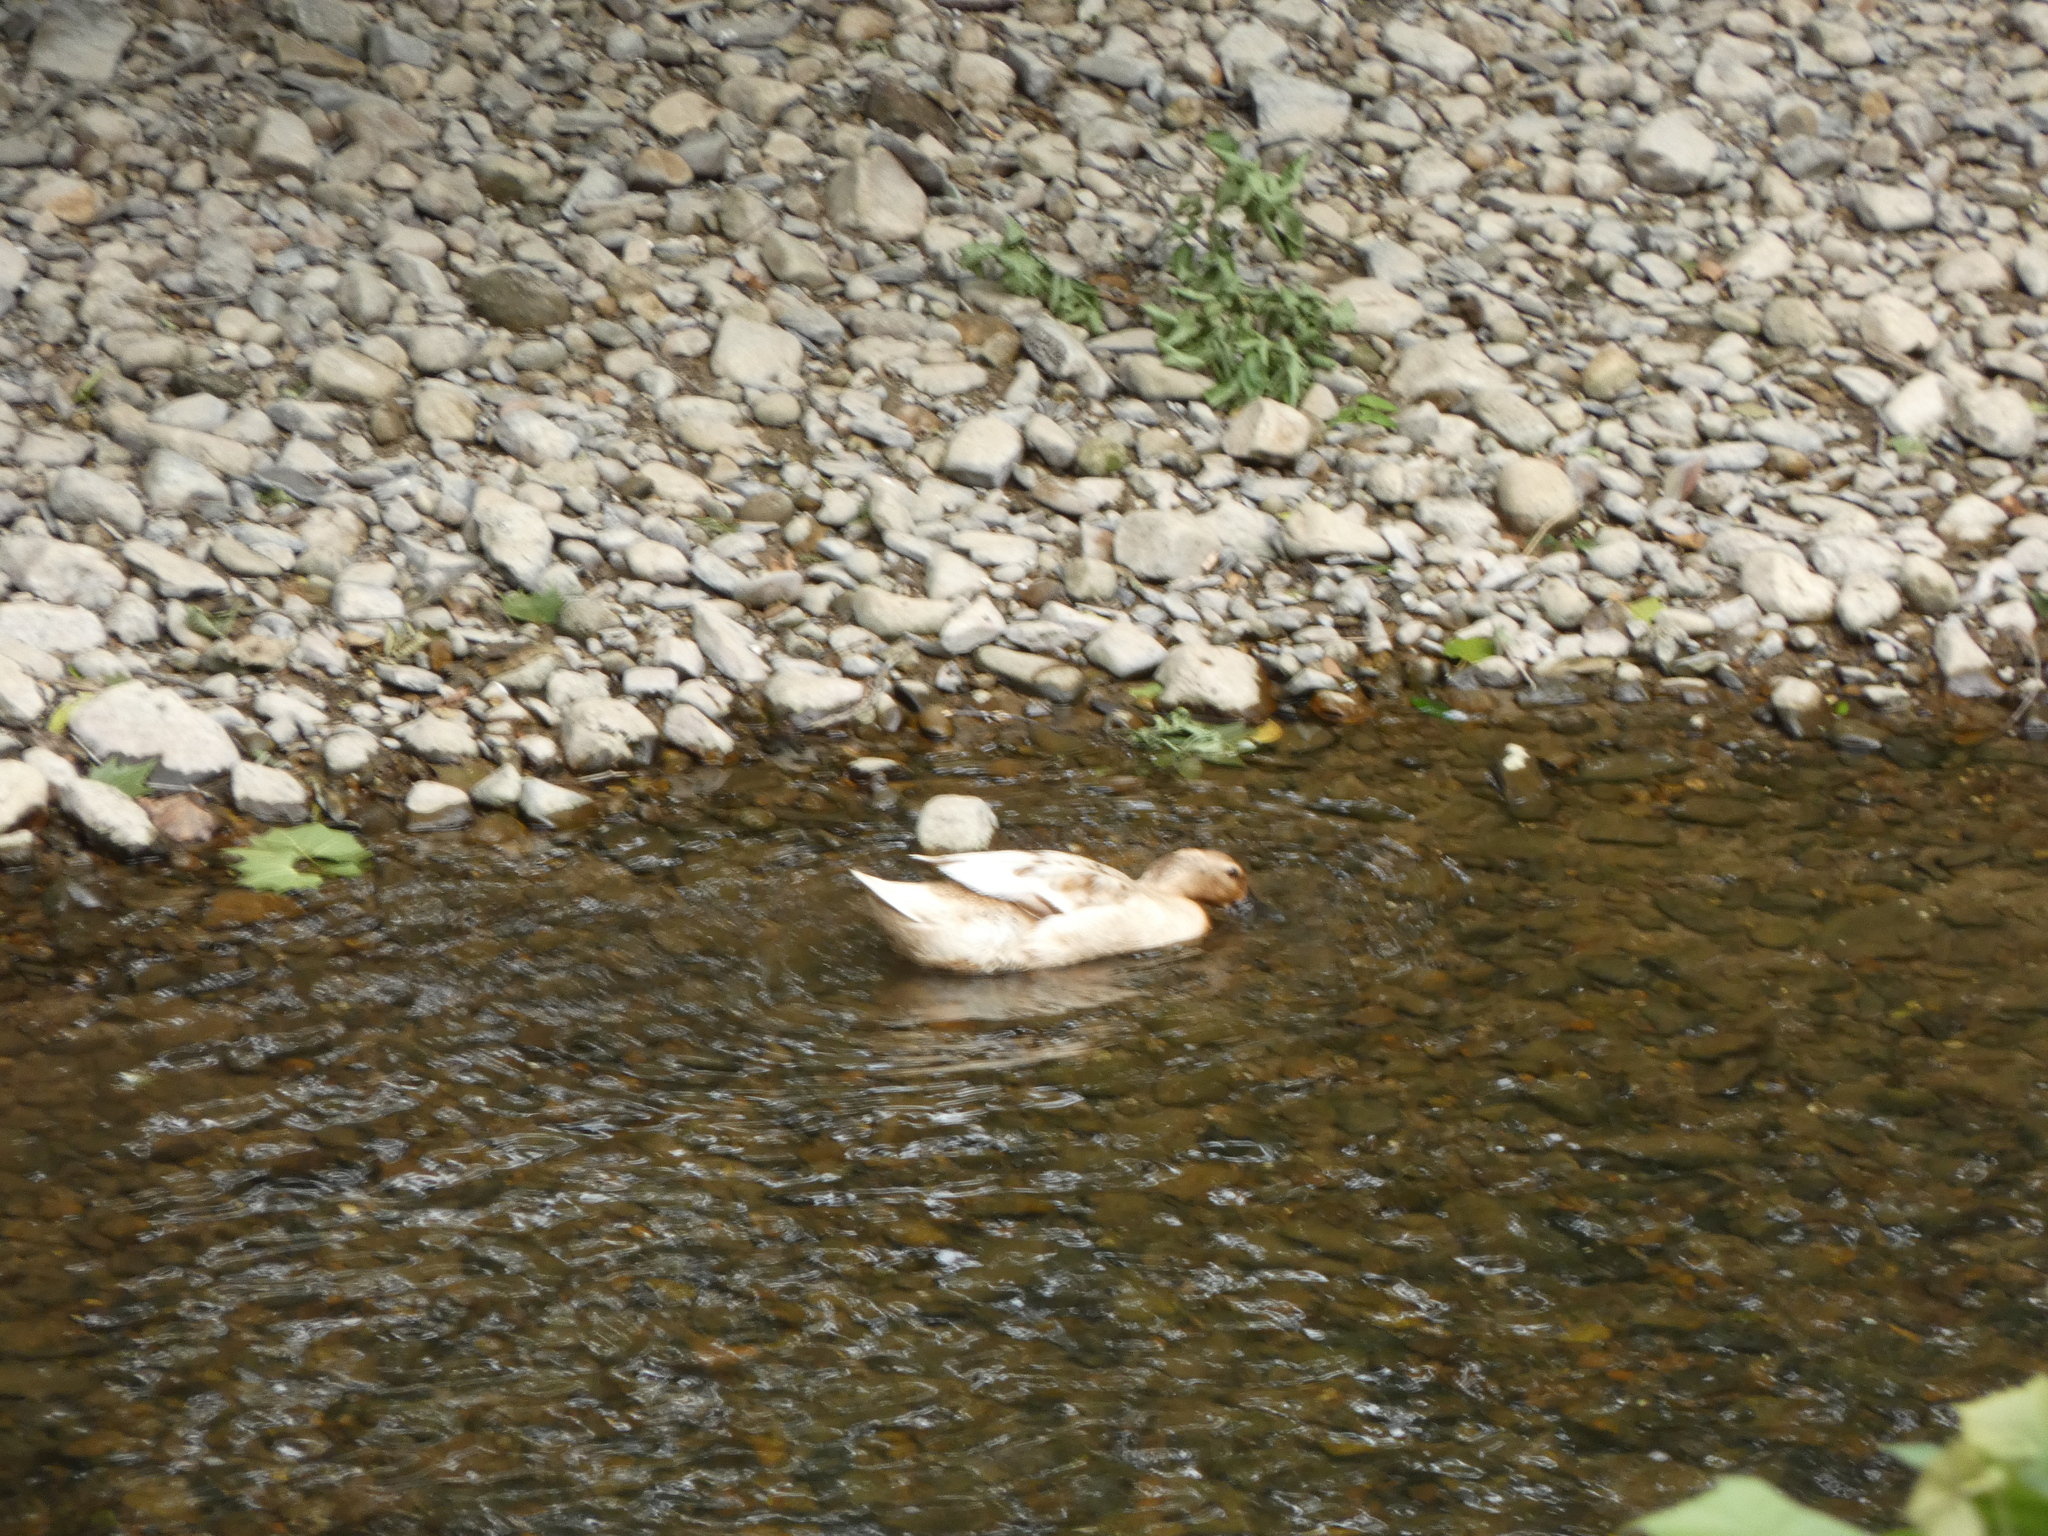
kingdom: Animalia
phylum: Chordata
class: Aves
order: Anseriformes
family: Anatidae
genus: Anas
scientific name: Anas platyrhynchos
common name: Mallard
